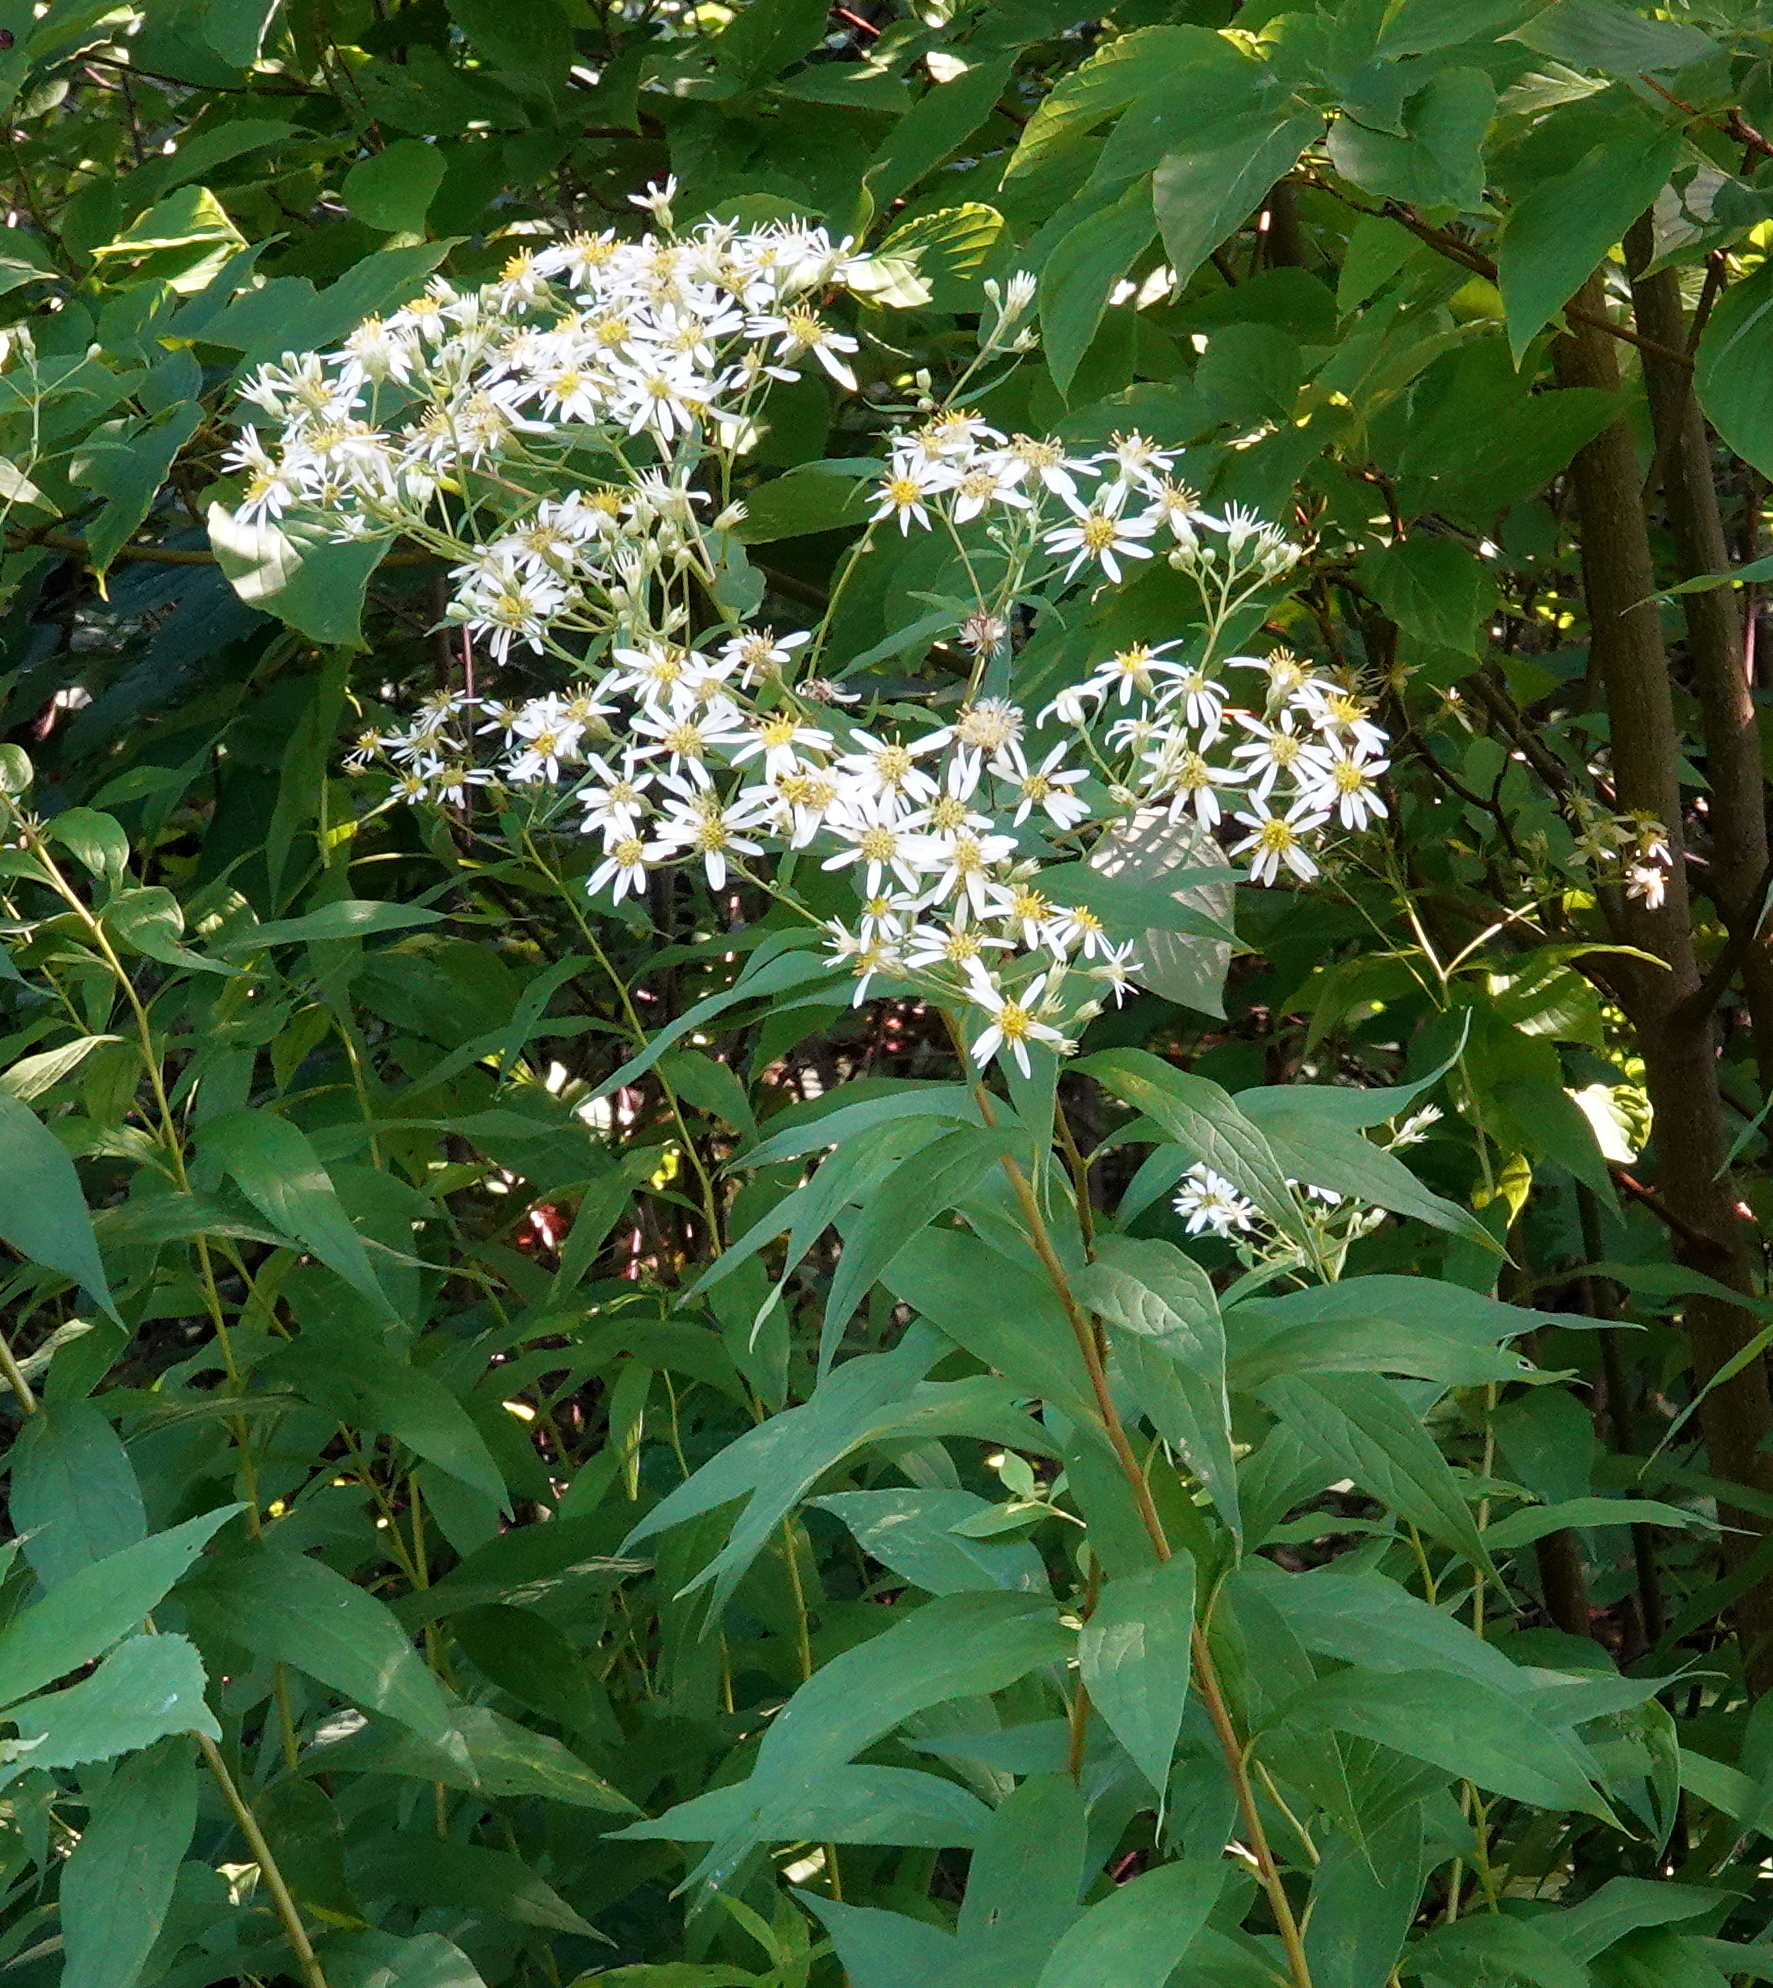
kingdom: Plantae
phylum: Tracheophyta
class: Magnoliopsida
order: Asterales
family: Asteraceae
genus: Doellingeria
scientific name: Doellingeria umbellata
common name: Flat-top white aster
